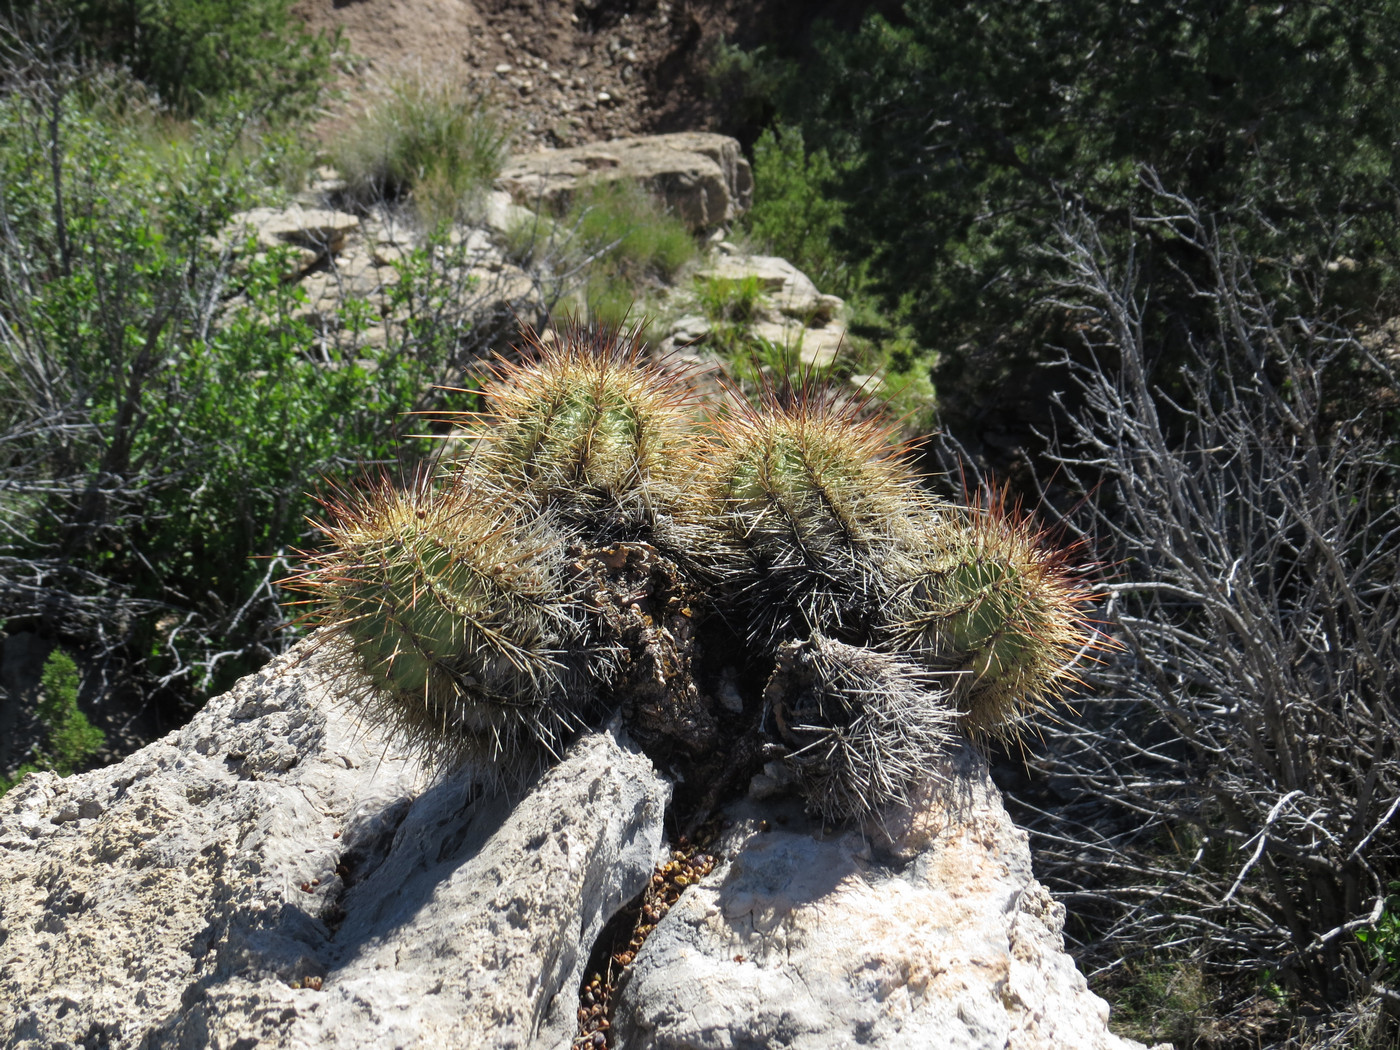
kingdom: Plantae
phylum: Tracheophyta
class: Magnoliopsida
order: Caryophyllales
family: Cactaceae
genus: Echinocereus
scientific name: Echinocereus coccineus
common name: Scarlet hedgehog cactus
